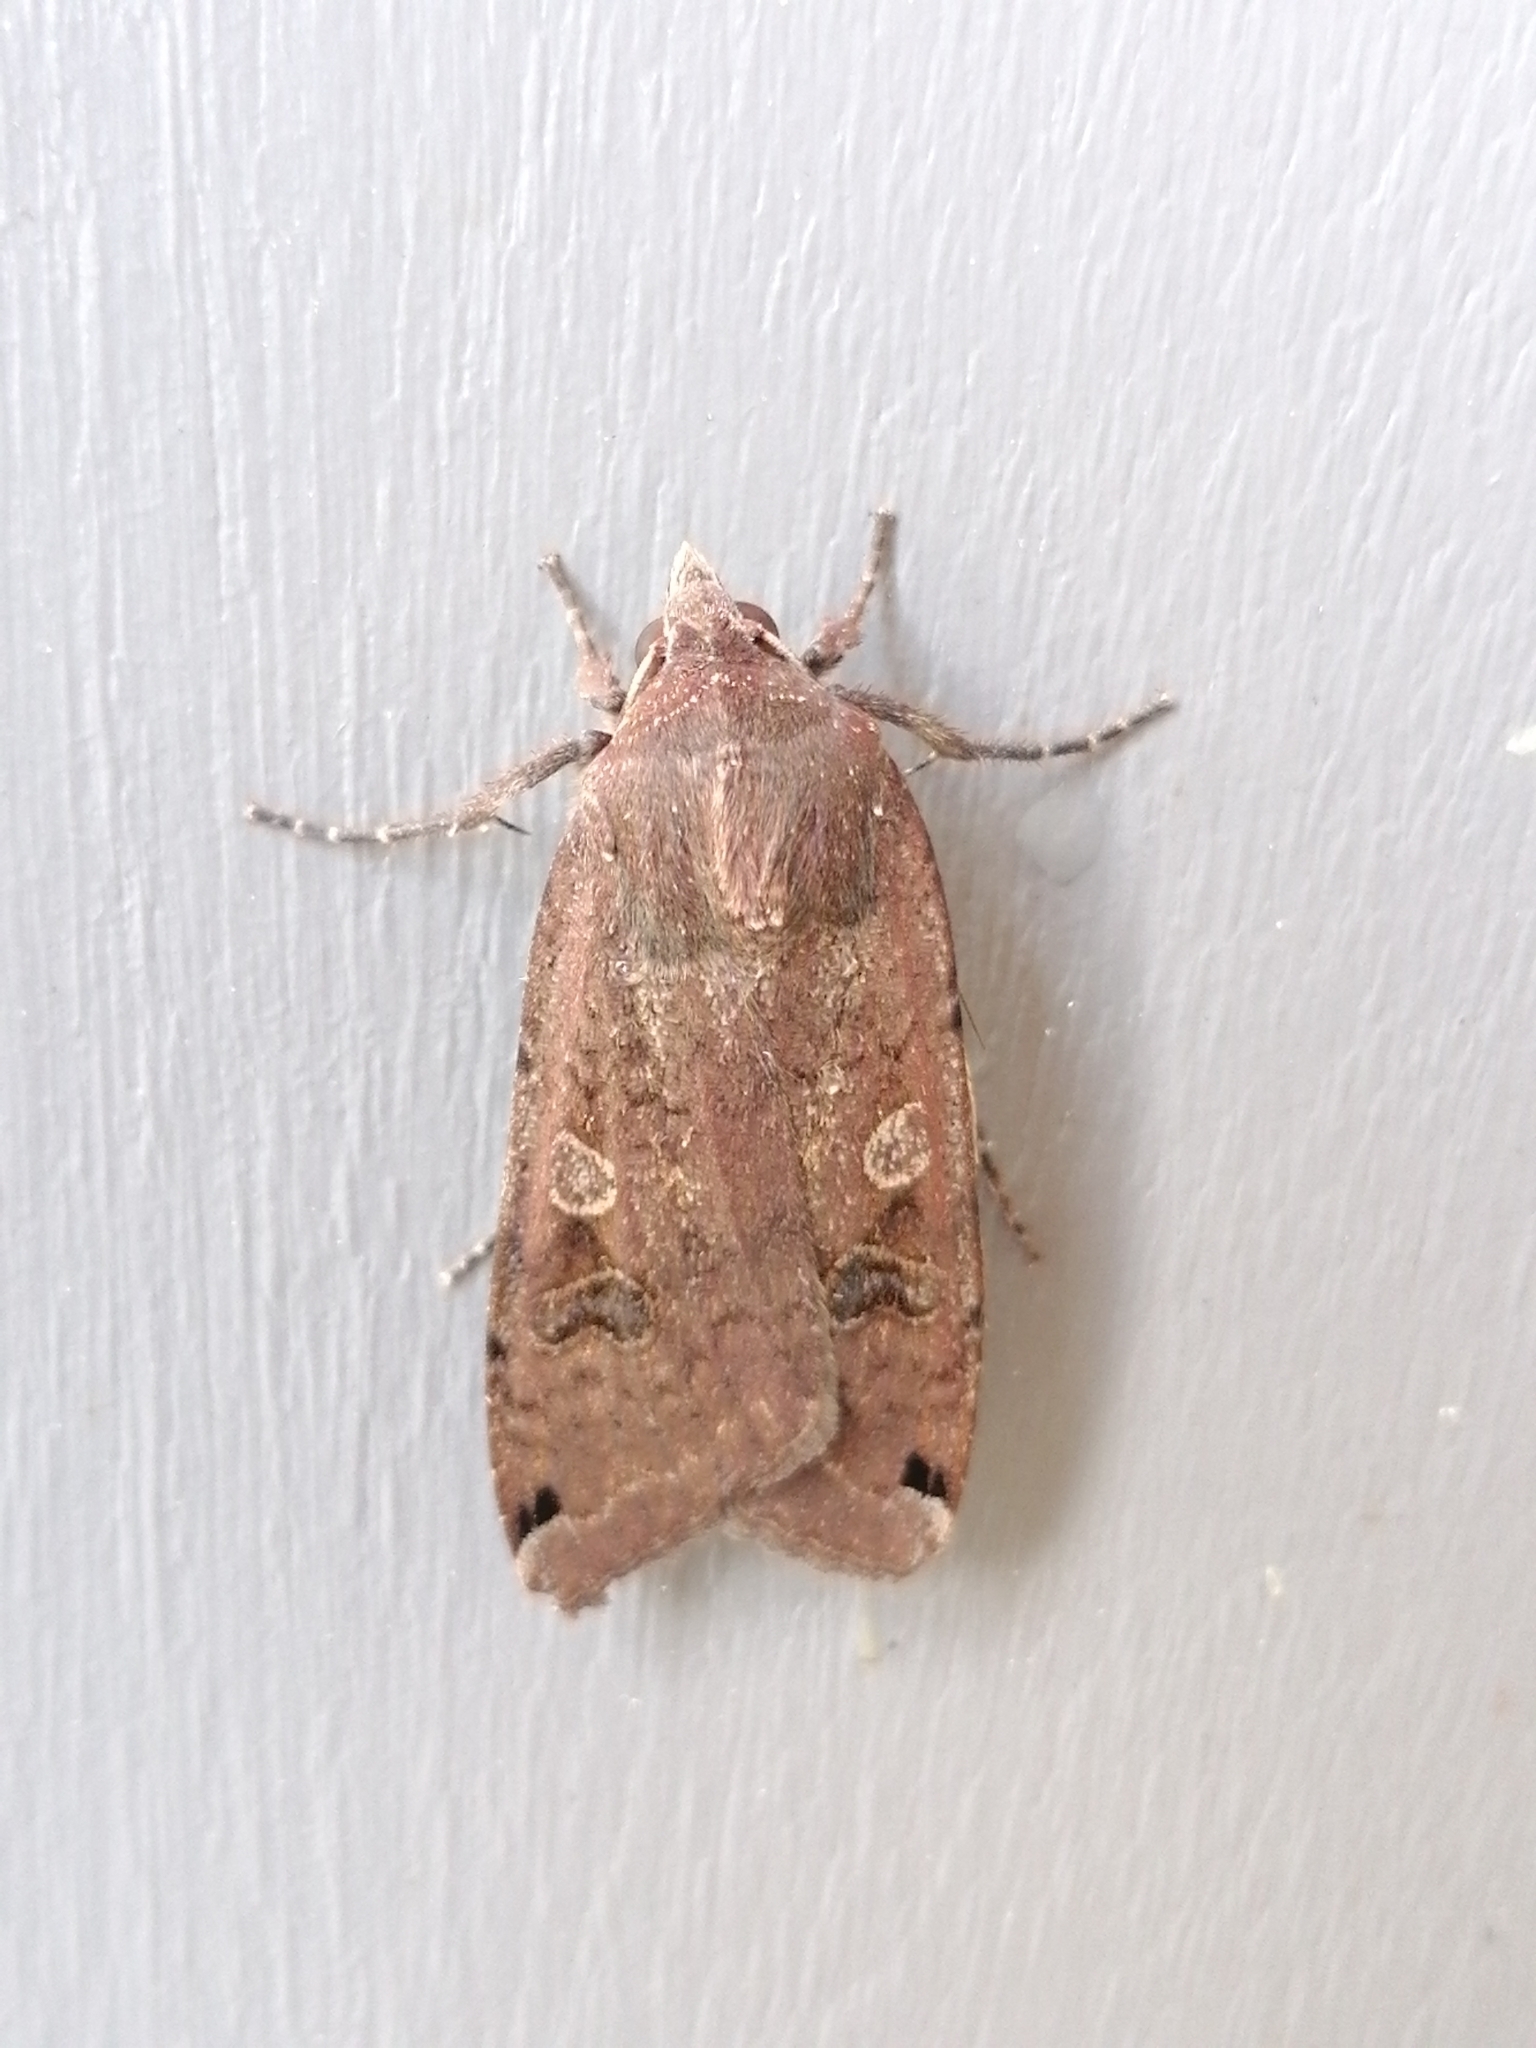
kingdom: Animalia
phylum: Arthropoda
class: Insecta
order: Lepidoptera
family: Noctuidae
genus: Noctua
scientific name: Noctua pronuba
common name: Large yellow underwing
